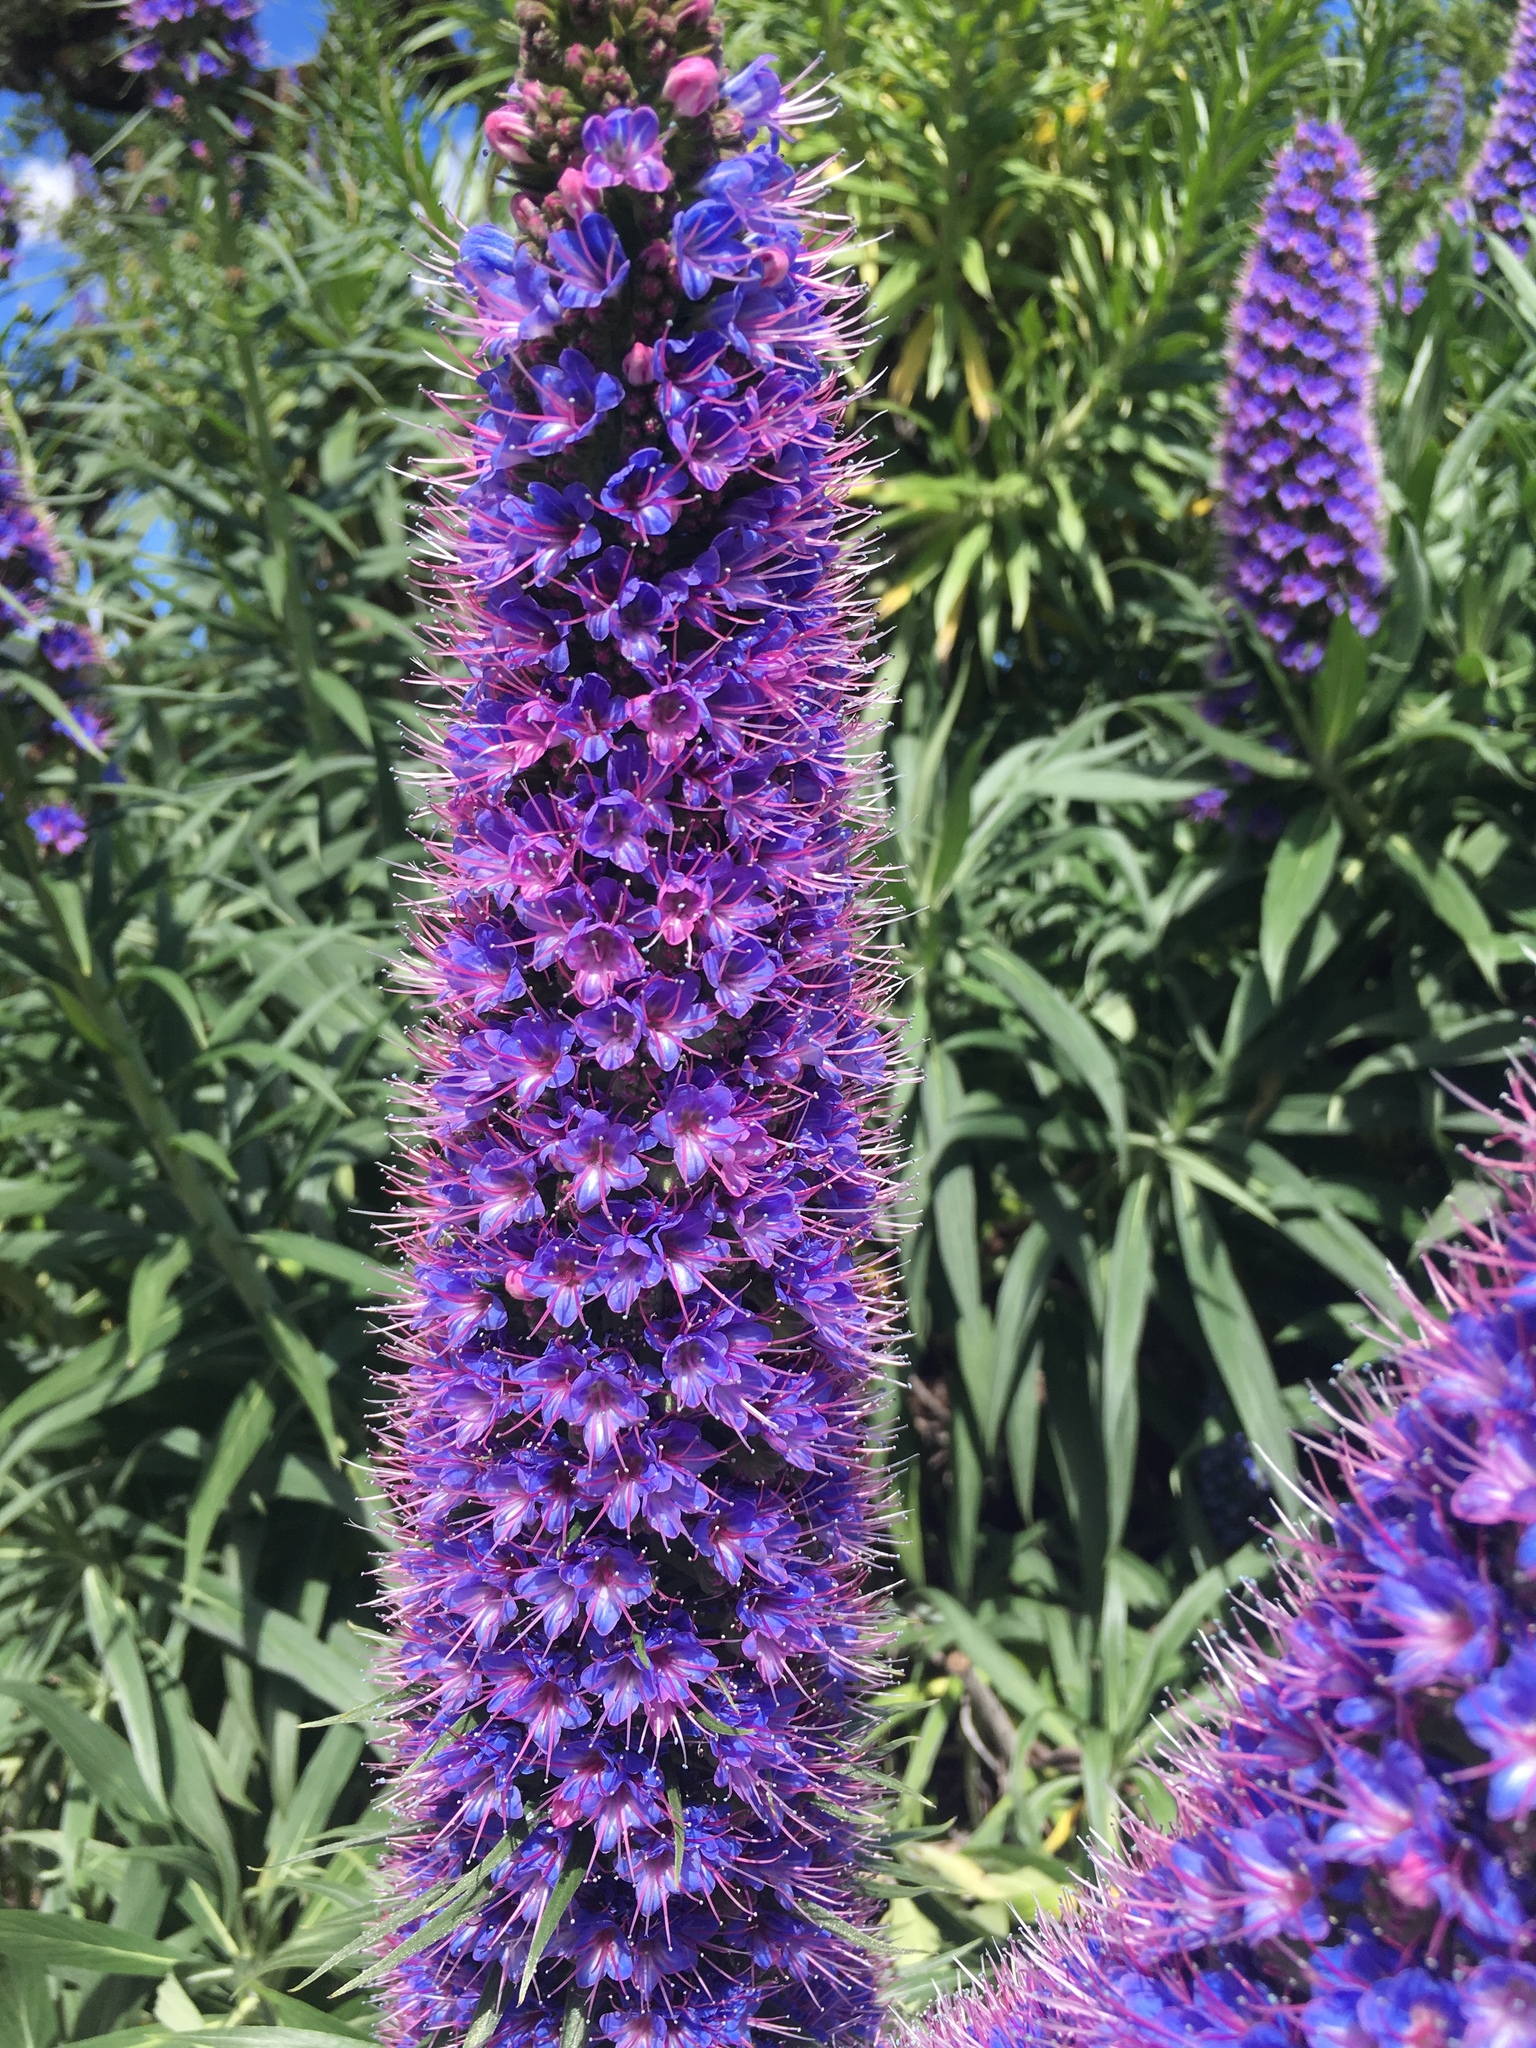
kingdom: Plantae
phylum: Tracheophyta
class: Magnoliopsida
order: Boraginales
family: Boraginaceae
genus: Echium
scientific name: Echium candicans
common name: Pride of madeira
